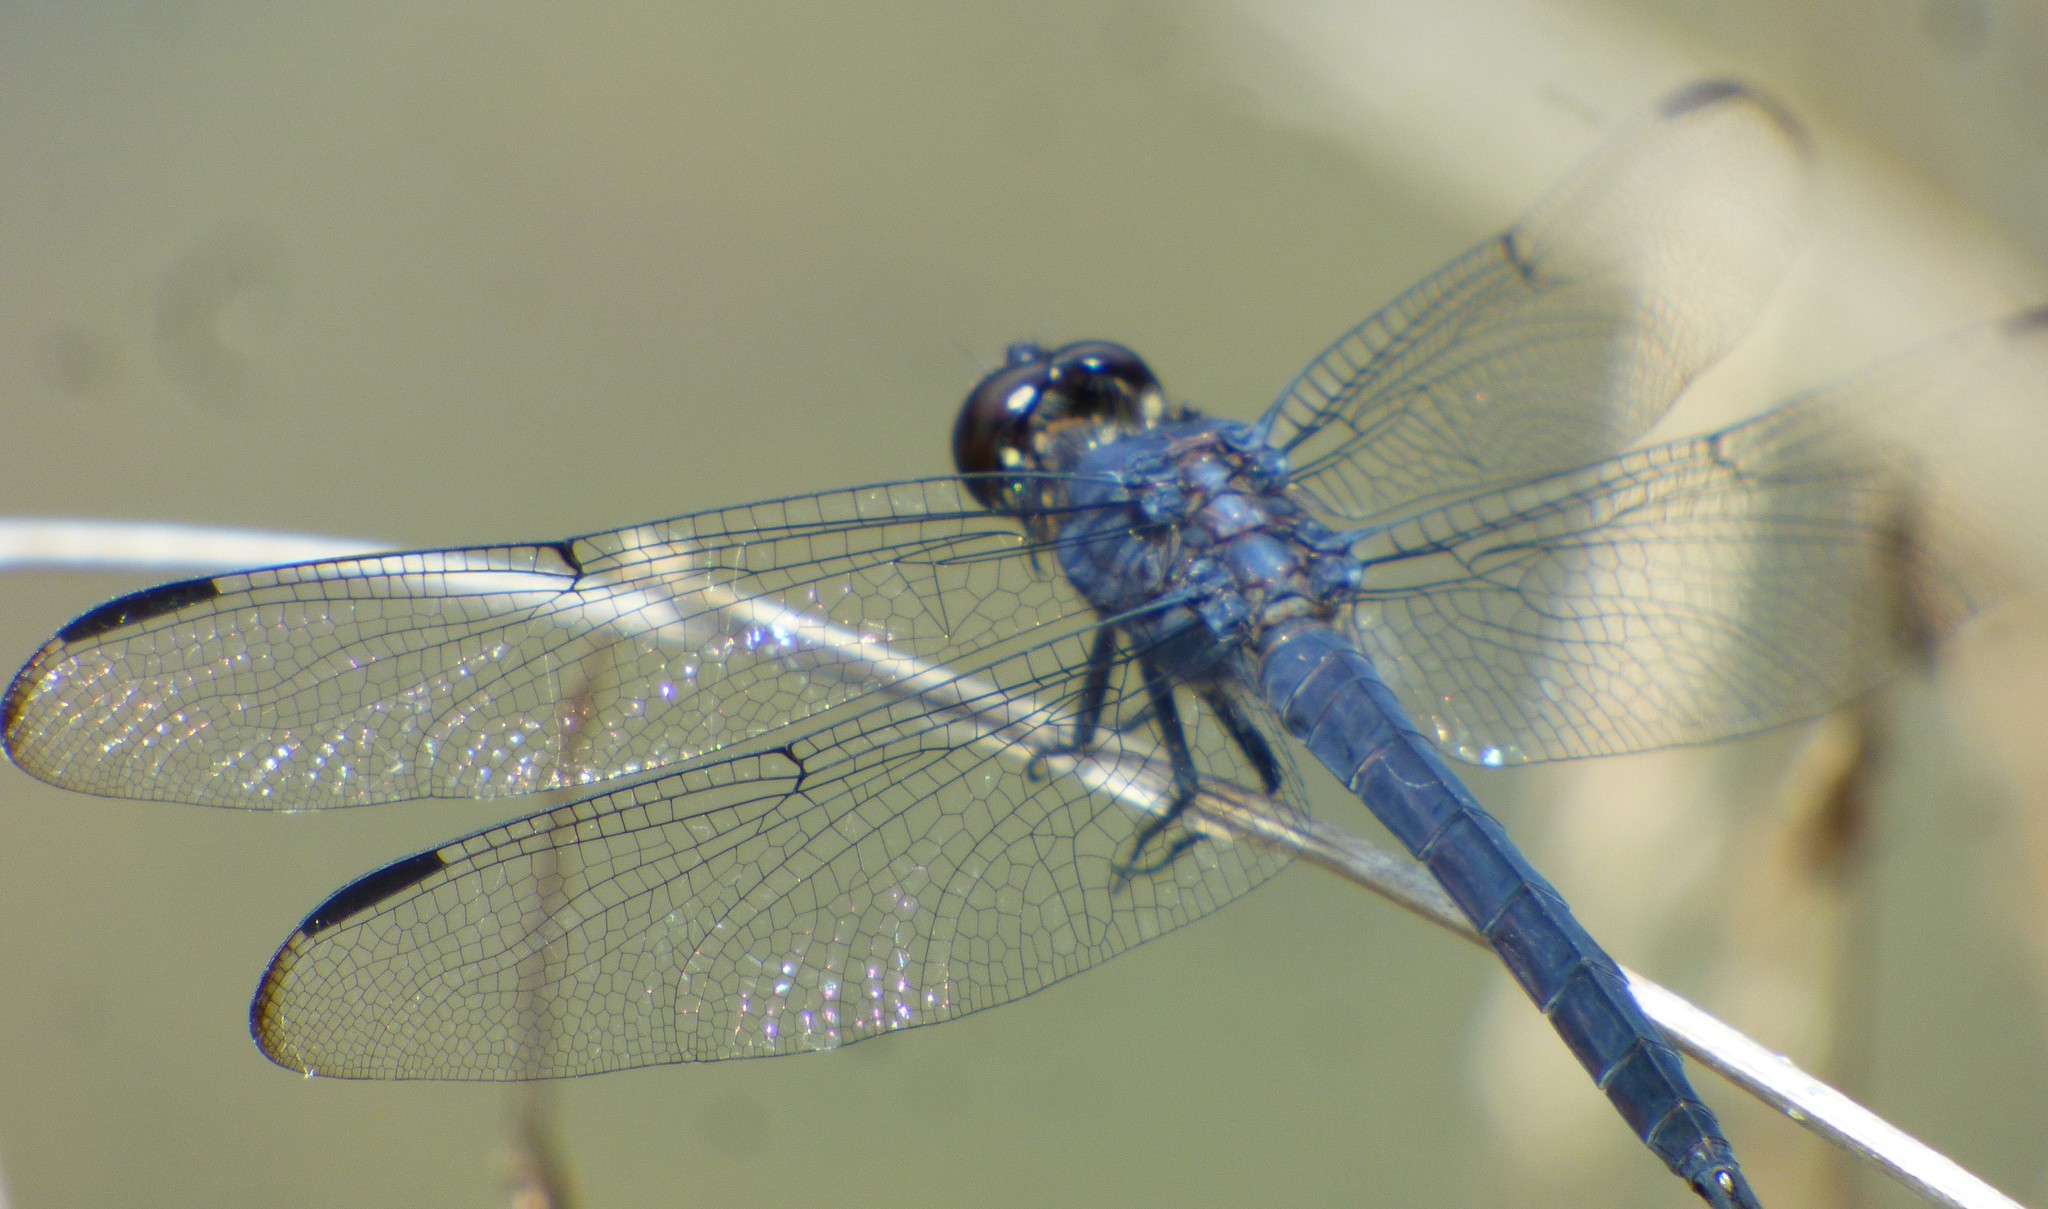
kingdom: Animalia
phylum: Arthropoda
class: Insecta
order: Odonata
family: Libellulidae
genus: Libellula
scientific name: Libellula incesta
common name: Slaty skimmer
